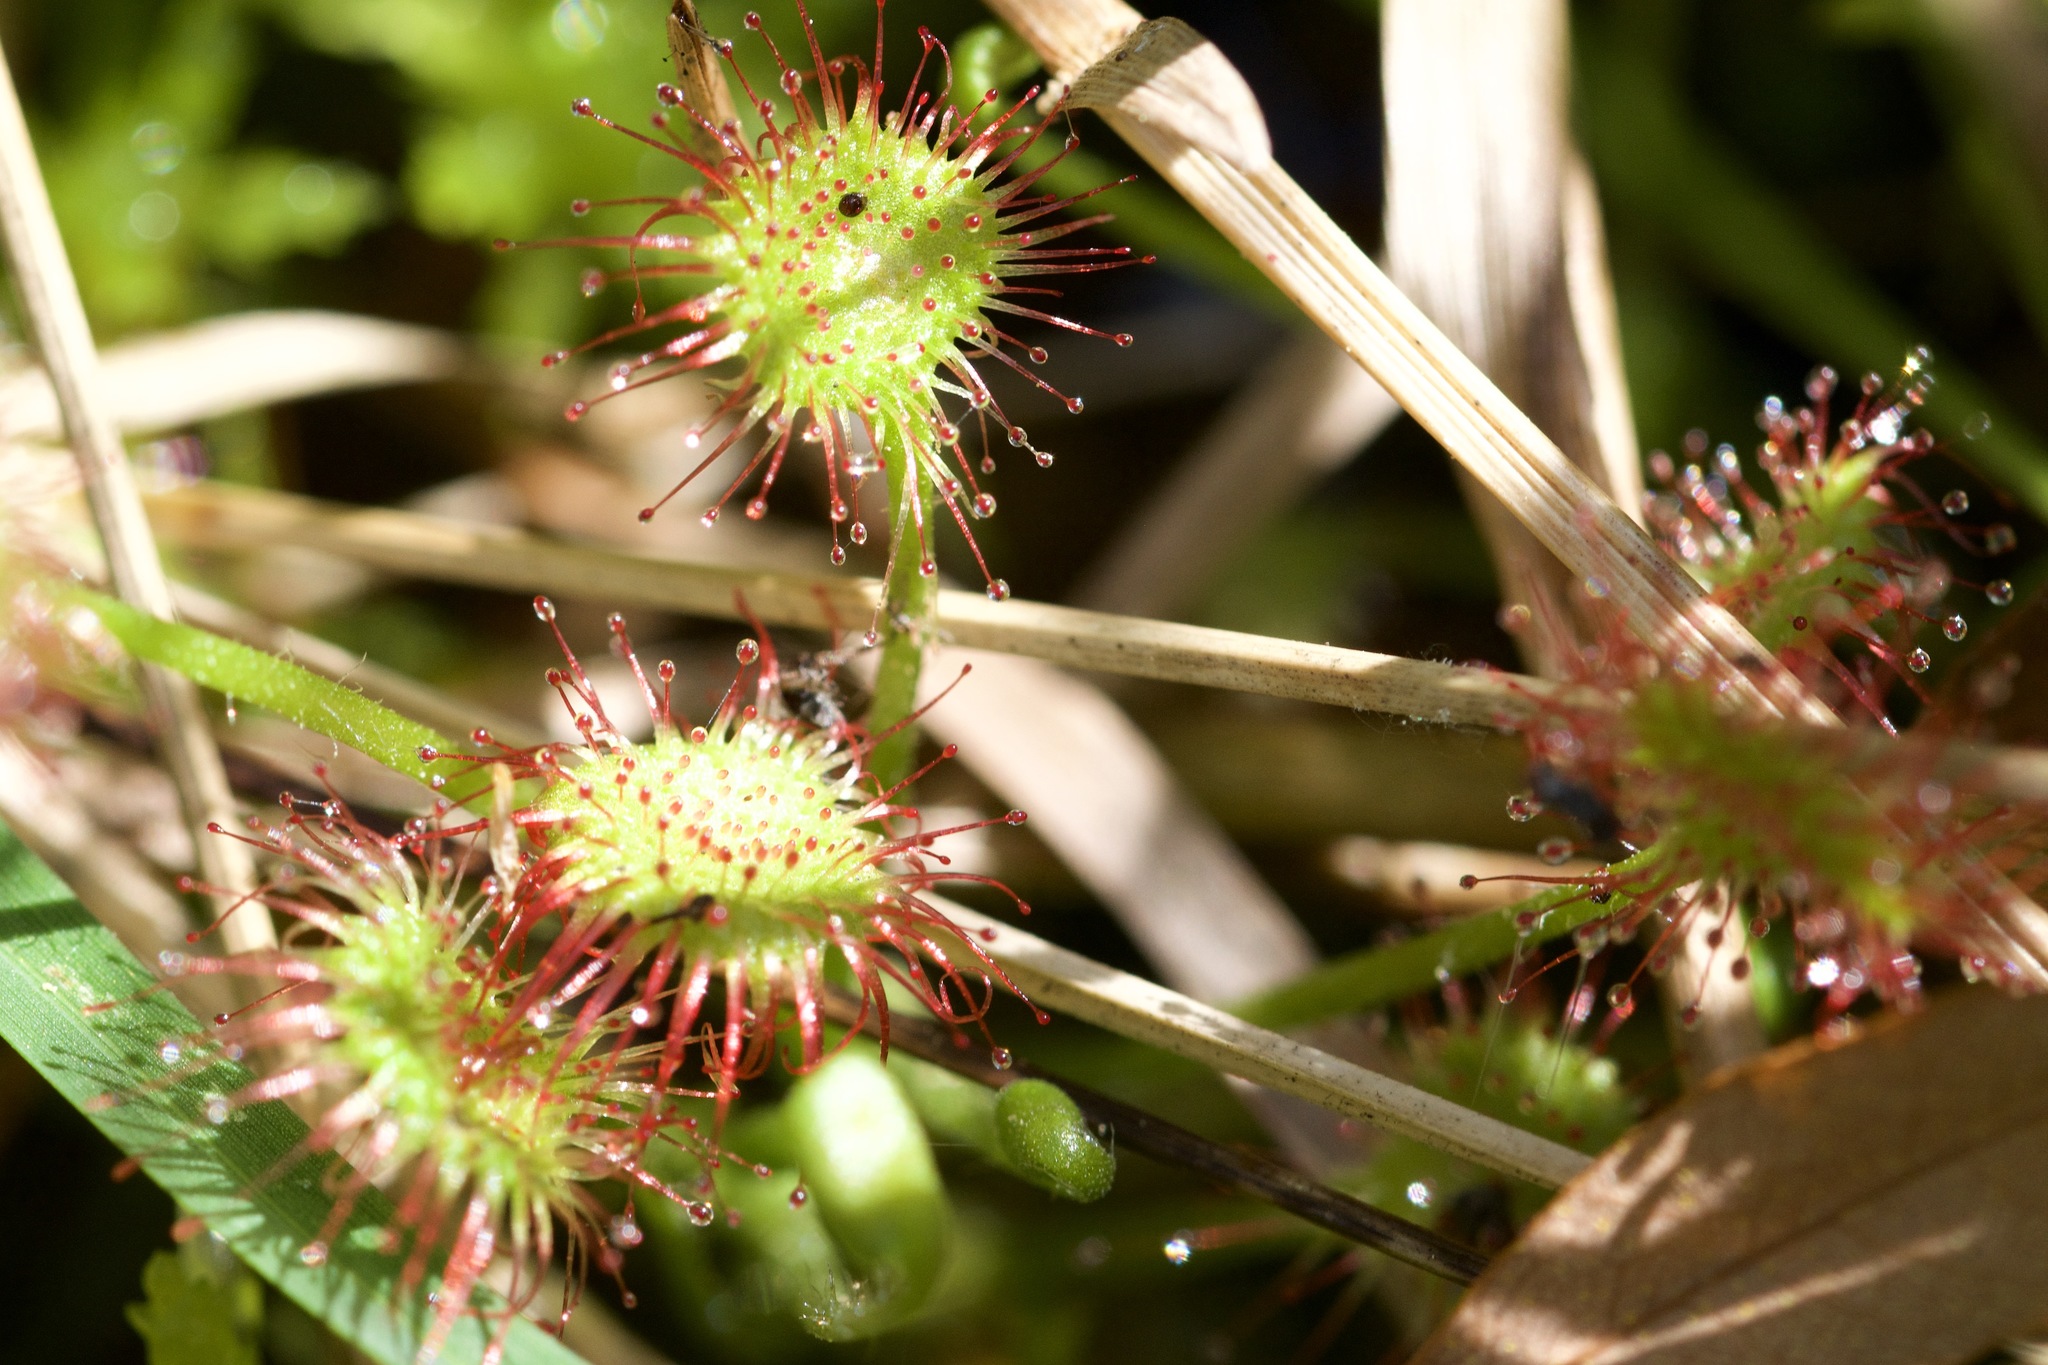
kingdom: Plantae
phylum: Tracheophyta
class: Magnoliopsida
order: Caryophyllales
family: Droseraceae
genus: Drosera
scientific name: Drosera rotundifolia
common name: Round-leaved sundew
